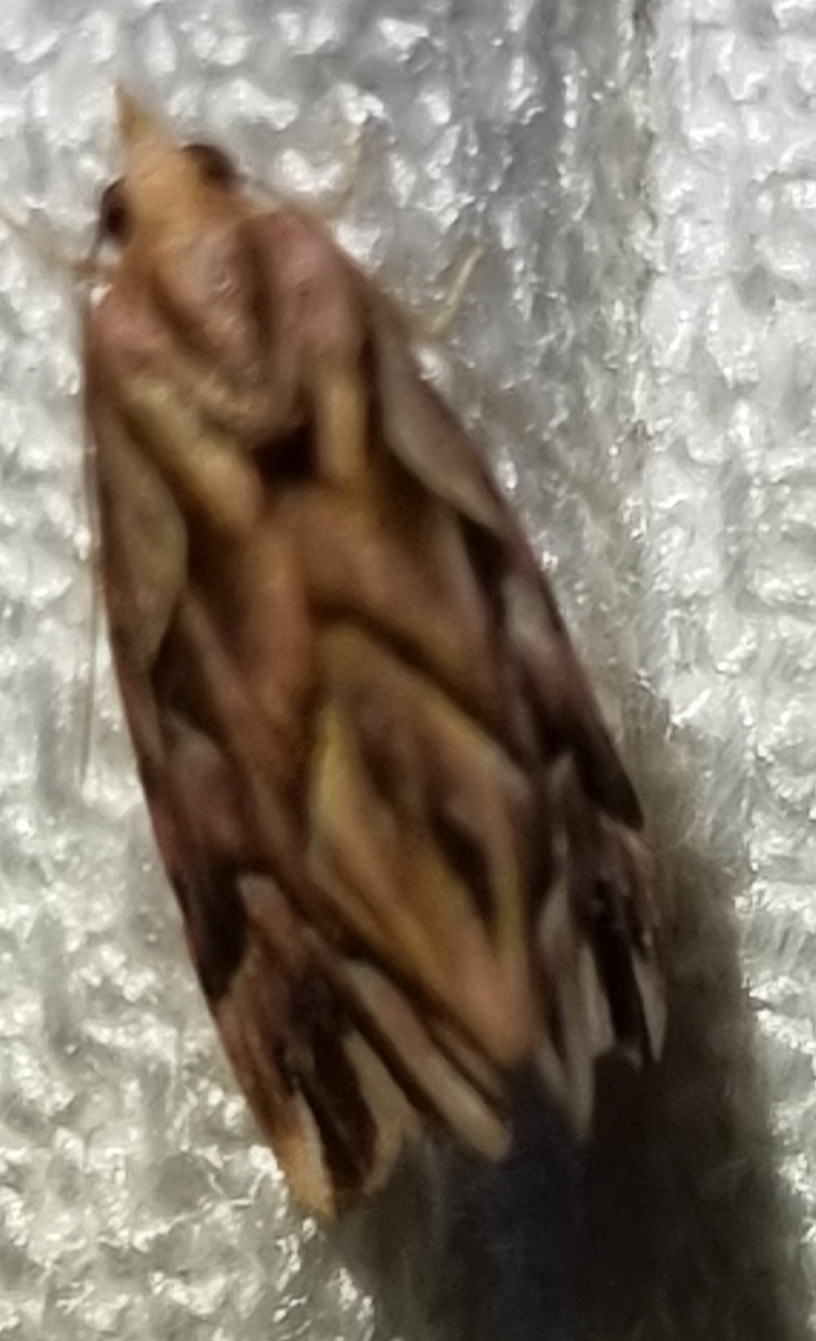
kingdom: Animalia
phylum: Arthropoda
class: Insecta
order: Lepidoptera
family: Noctuidae
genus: Clytoscopa
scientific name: Clytoscopa iorrhoda
